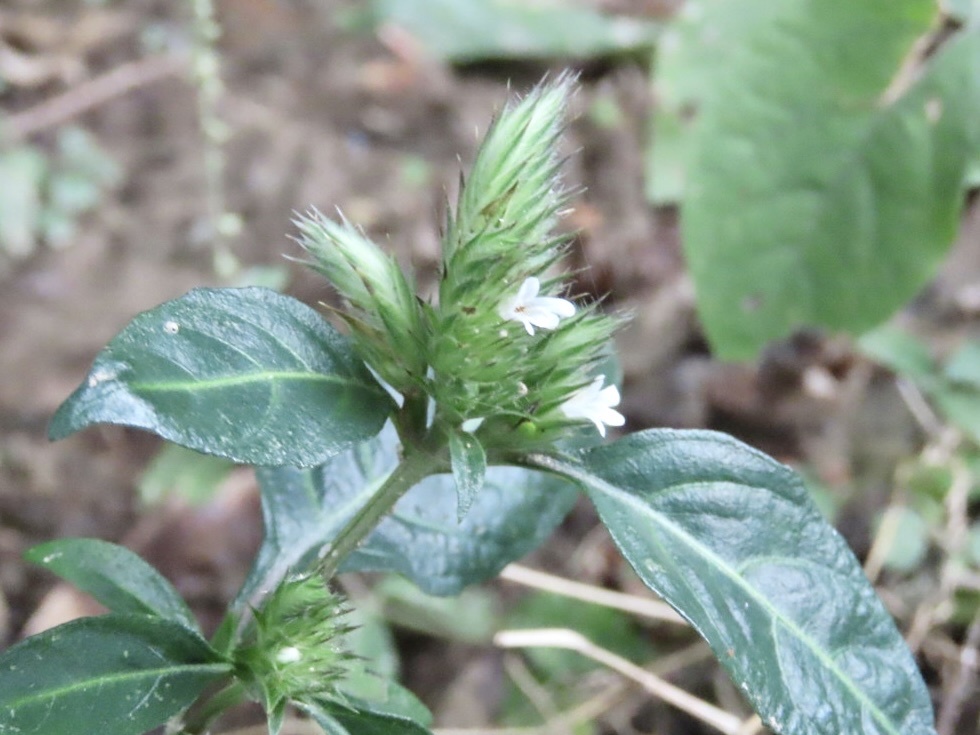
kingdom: Plantae
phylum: Tracheophyta
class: Magnoliopsida
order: Lamiales
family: Acanthaceae
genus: Lepidagathis
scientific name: Lepidagathis incurva
